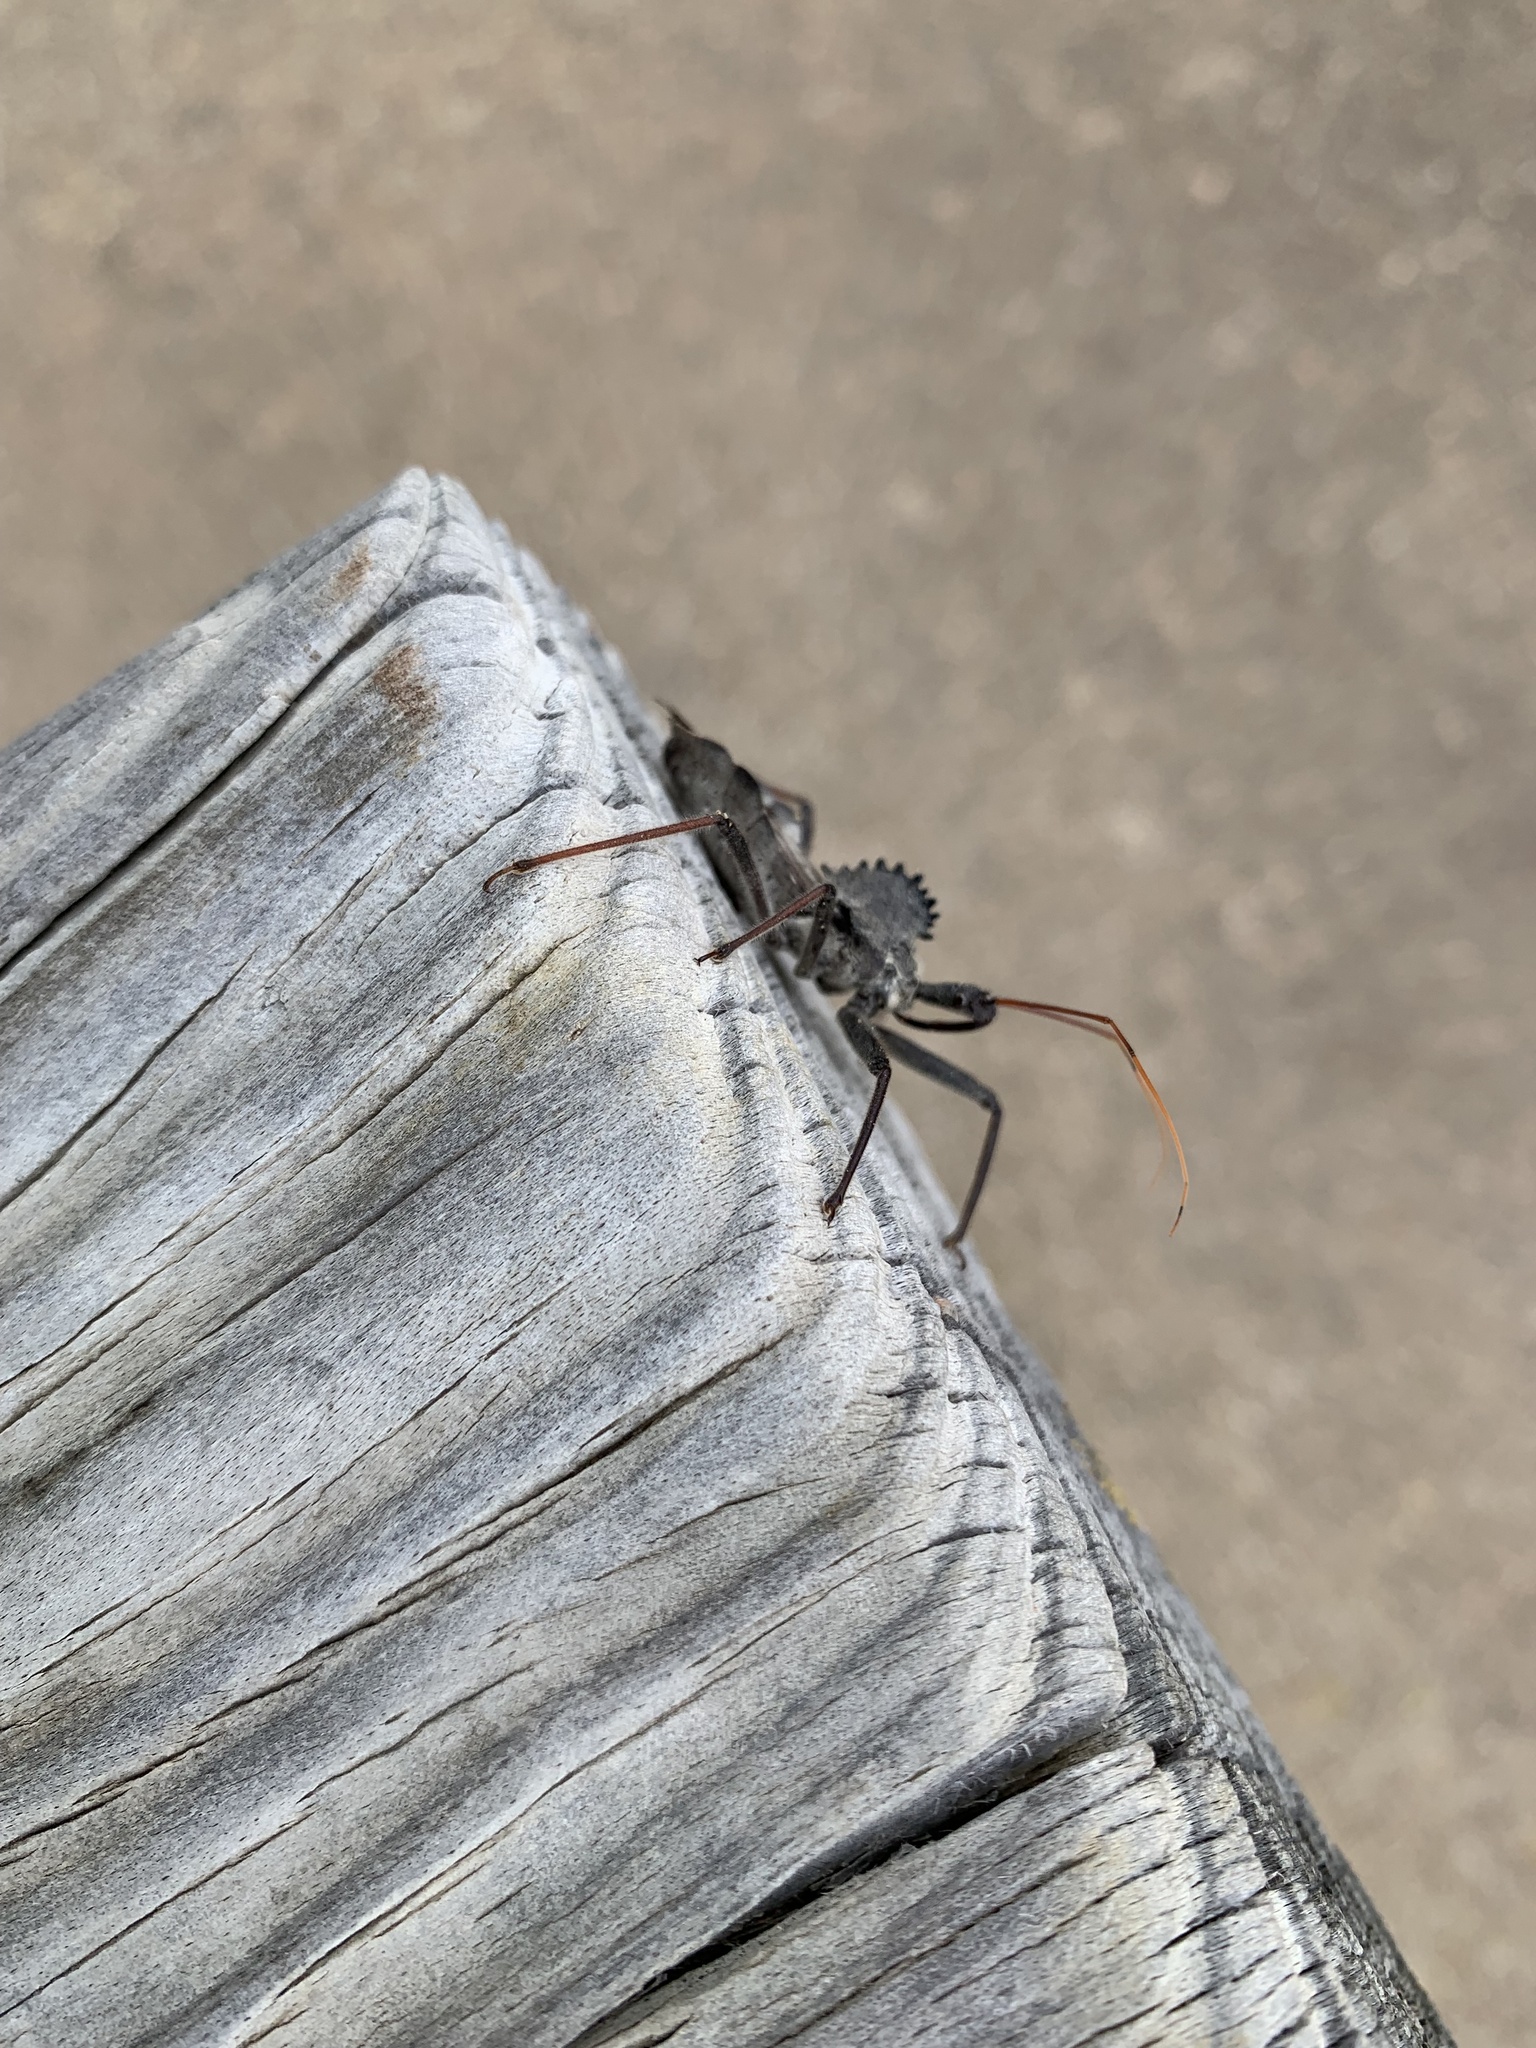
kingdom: Animalia
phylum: Arthropoda
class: Insecta
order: Hemiptera
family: Reduviidae
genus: Arilus
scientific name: Arilus cristatus
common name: North american wheel bug
